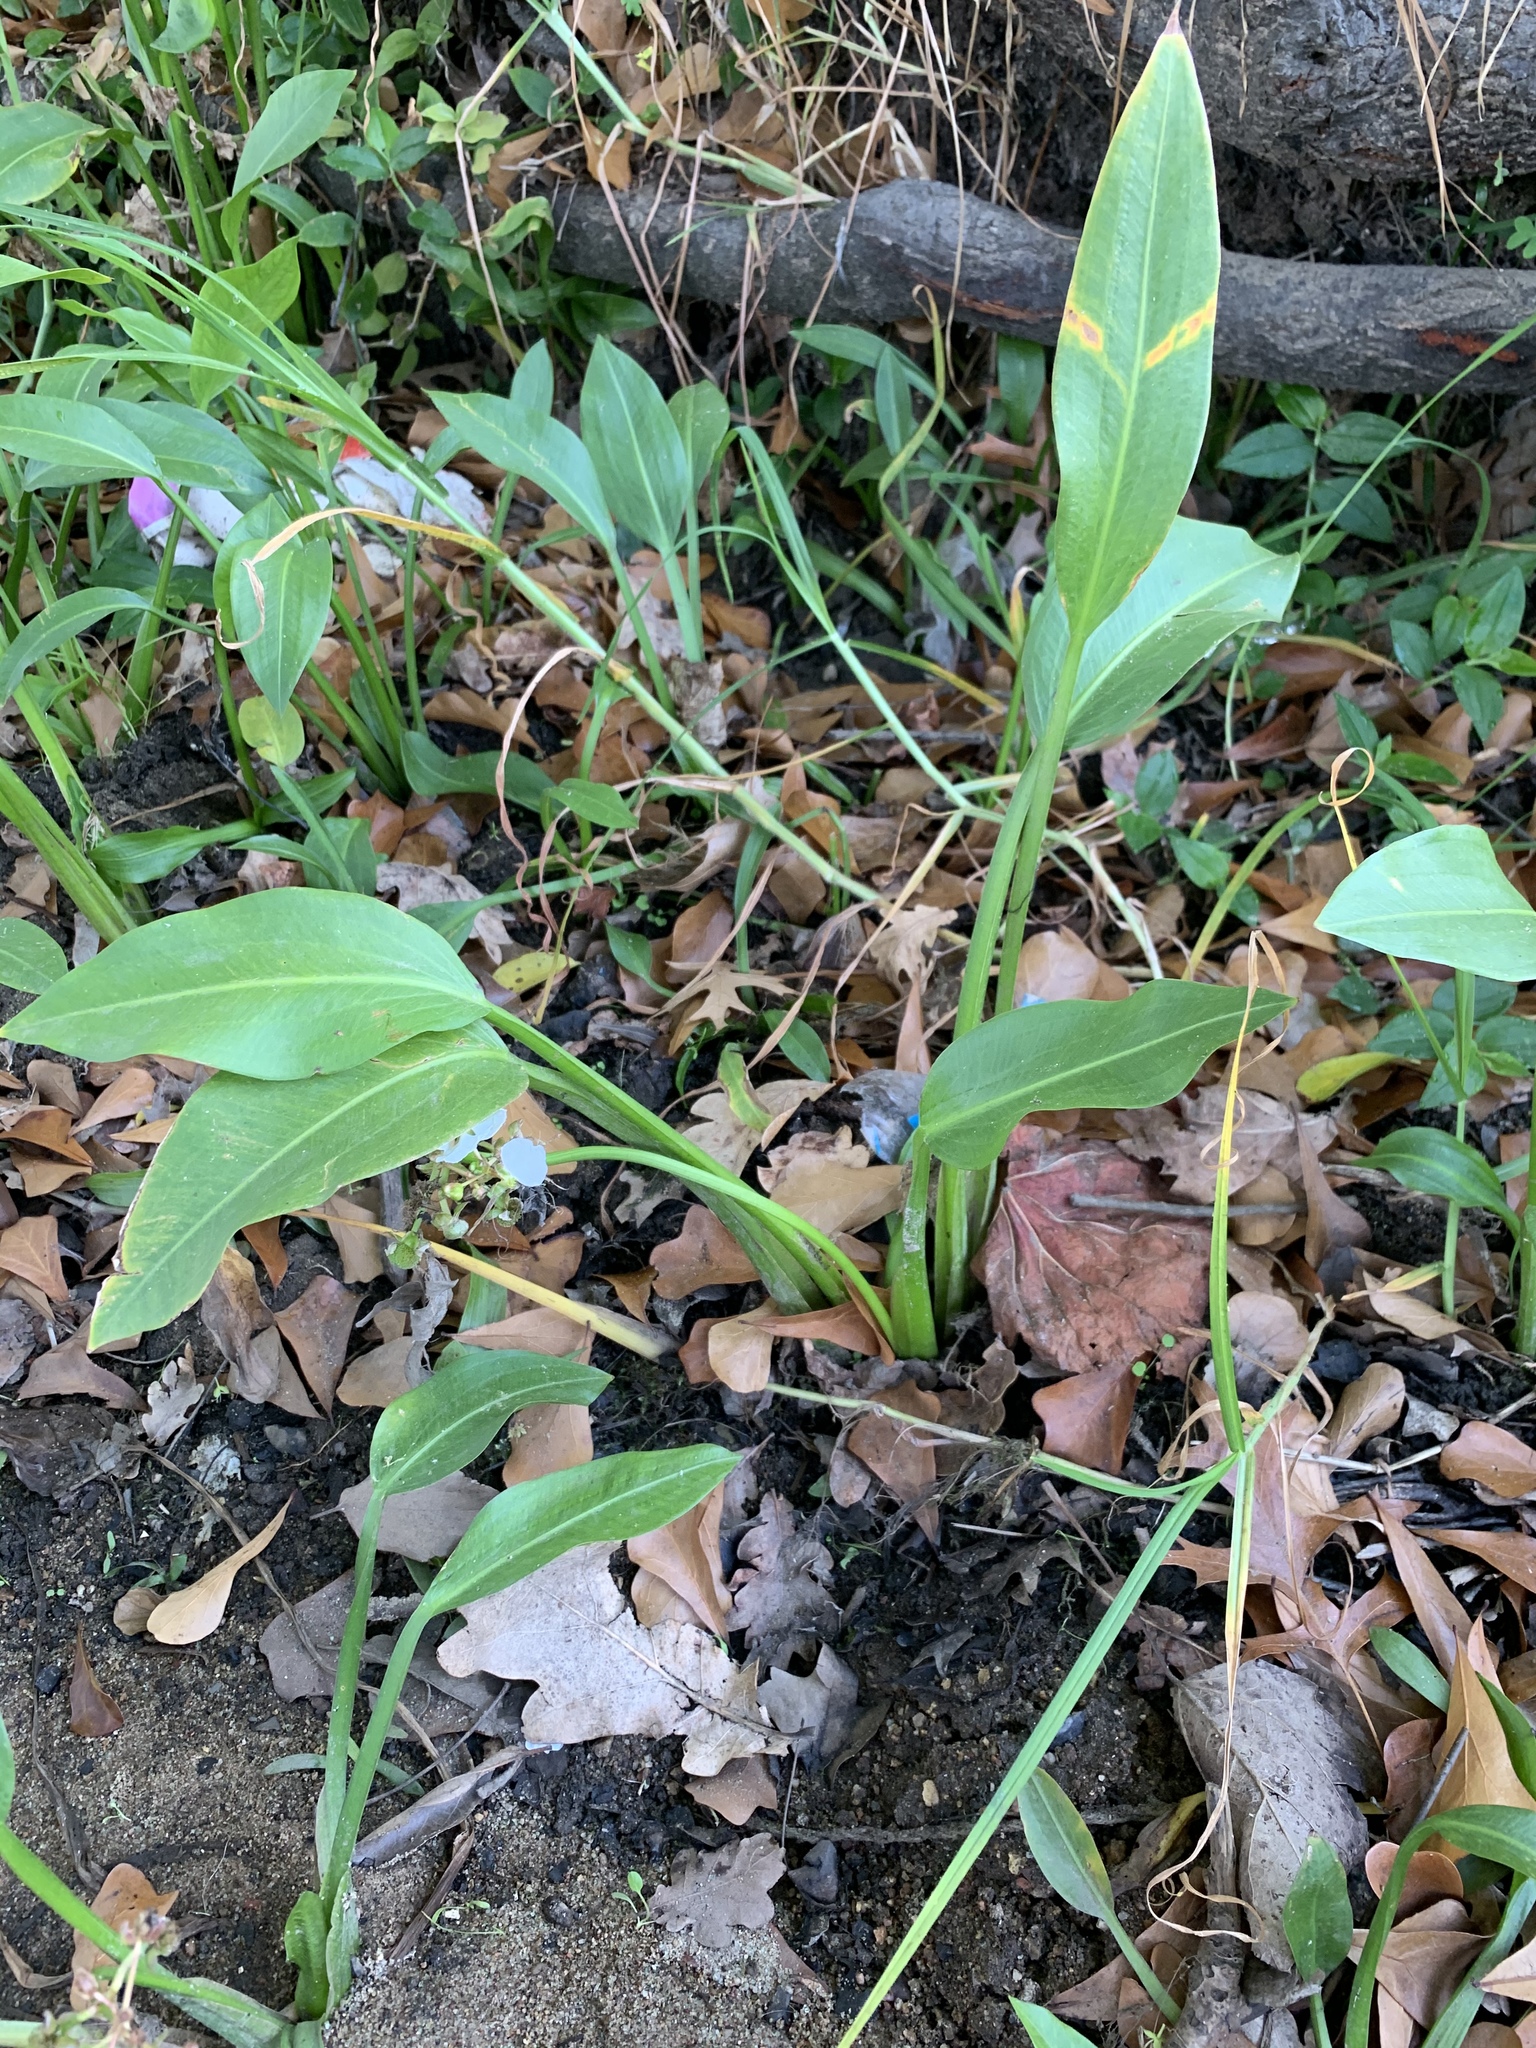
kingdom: Plantae
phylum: Tracheophyta
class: Liliopsida
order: Alismatales
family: Alismataceae
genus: Sagittaria
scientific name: Sagittaria platyphylla
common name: Broad-leaf arrowhead
